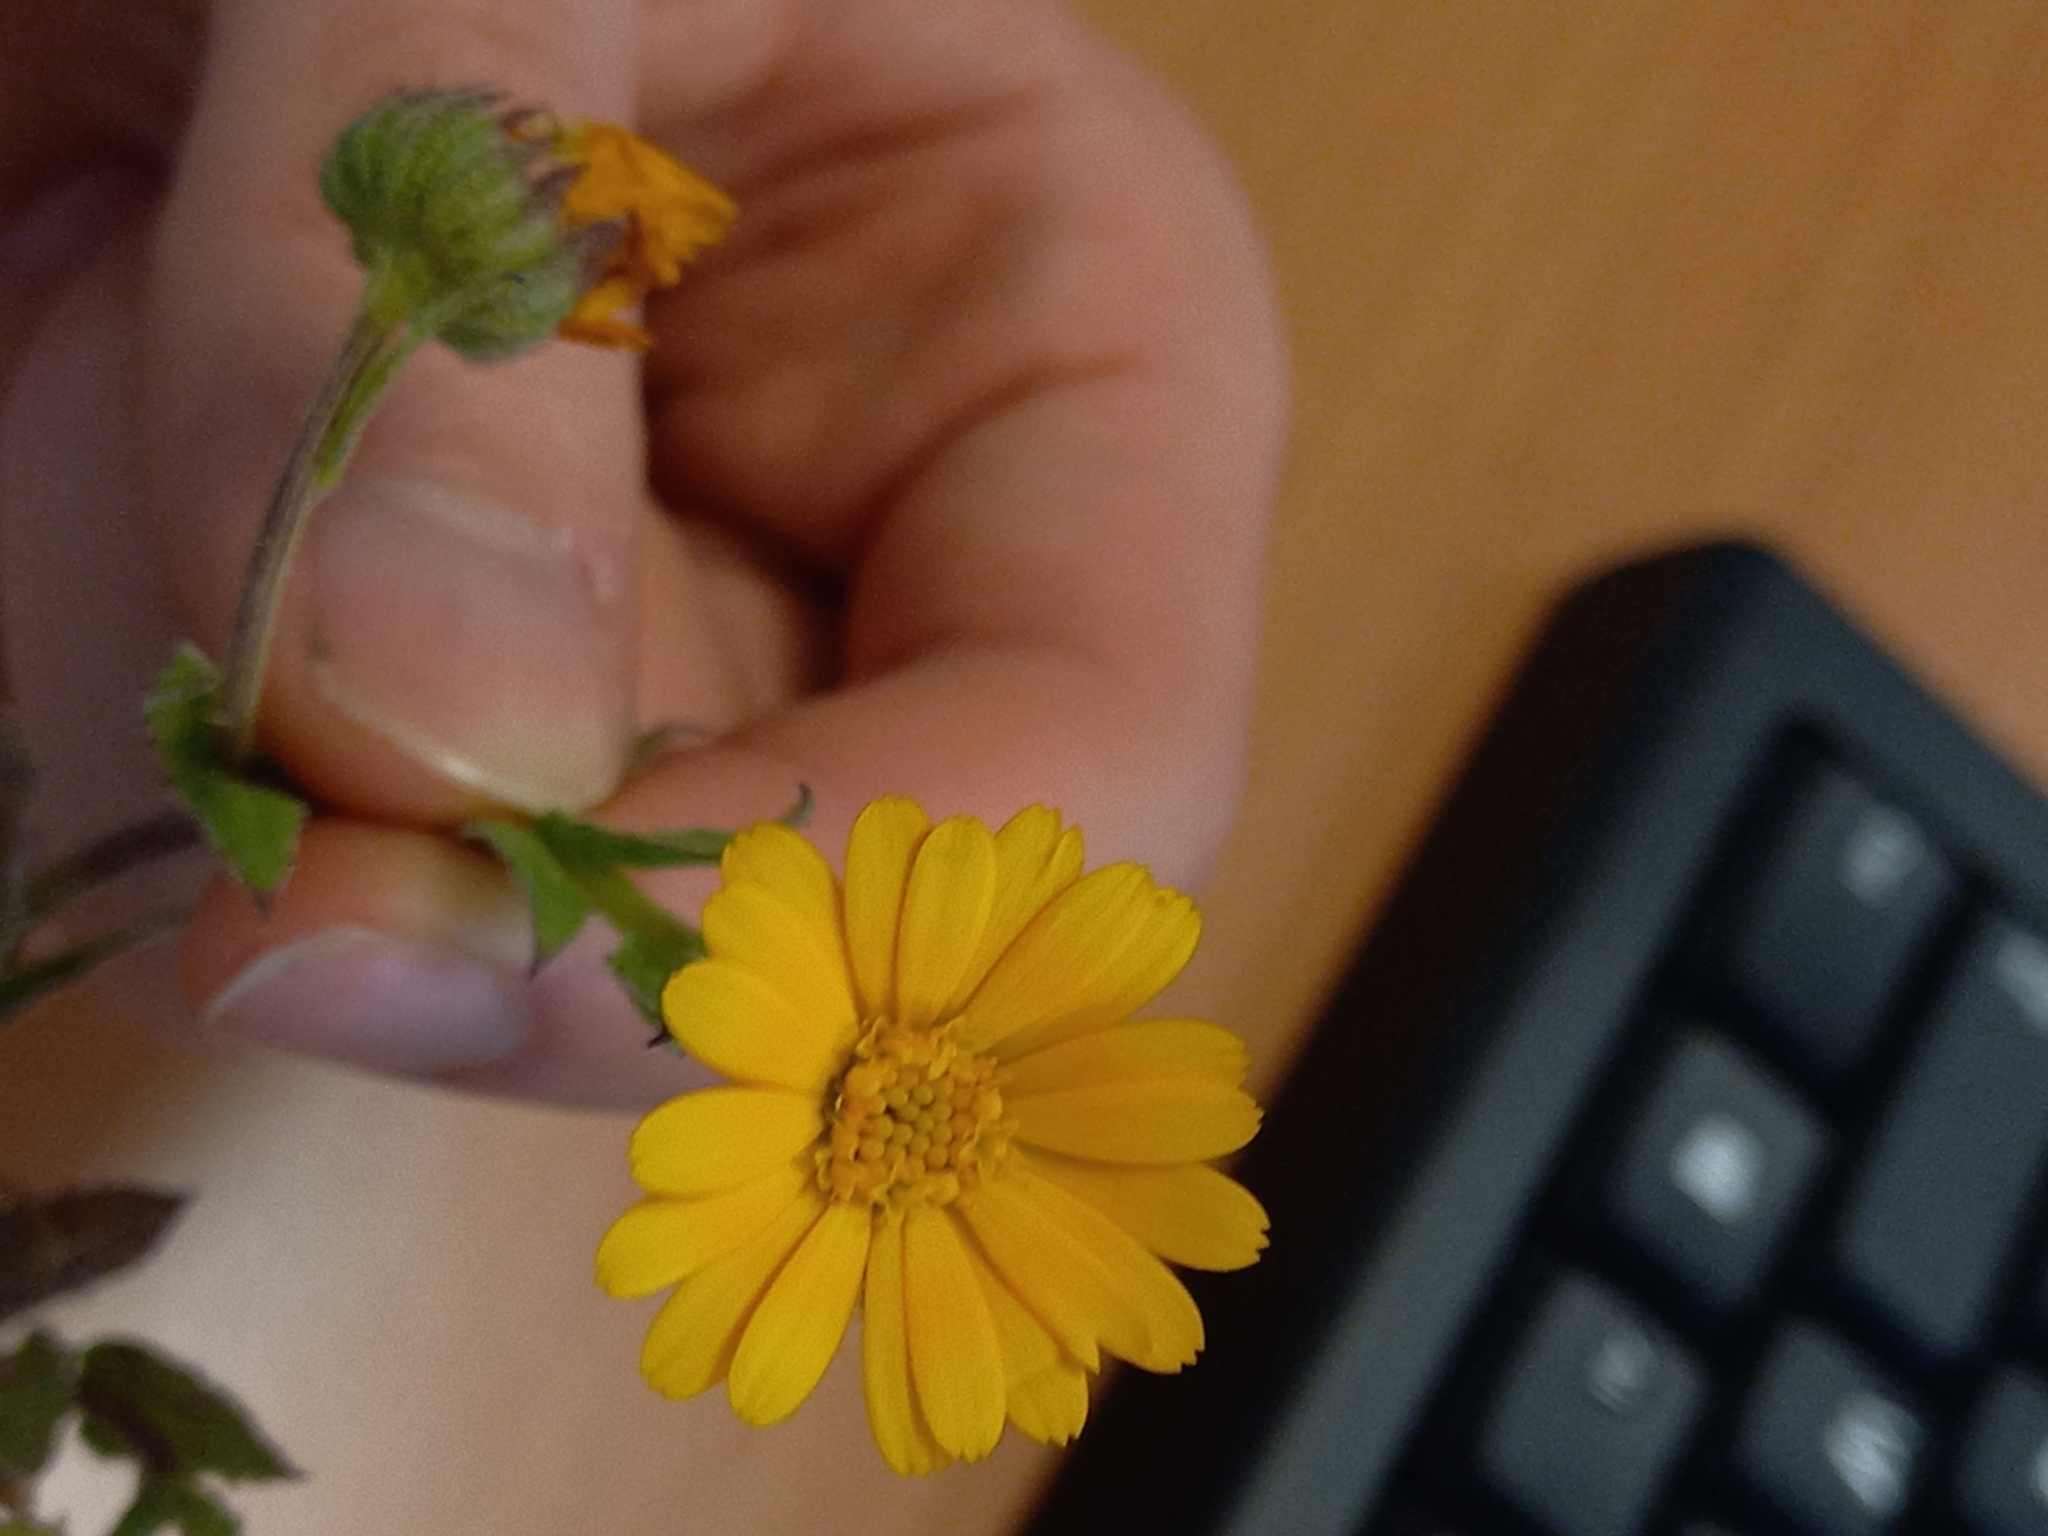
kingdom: Plantae
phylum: Tracheophyta
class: Magnoliopsida
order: Asterales
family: Asteraceae
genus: Calendula
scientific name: Calendula arvensis
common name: Field marigold
